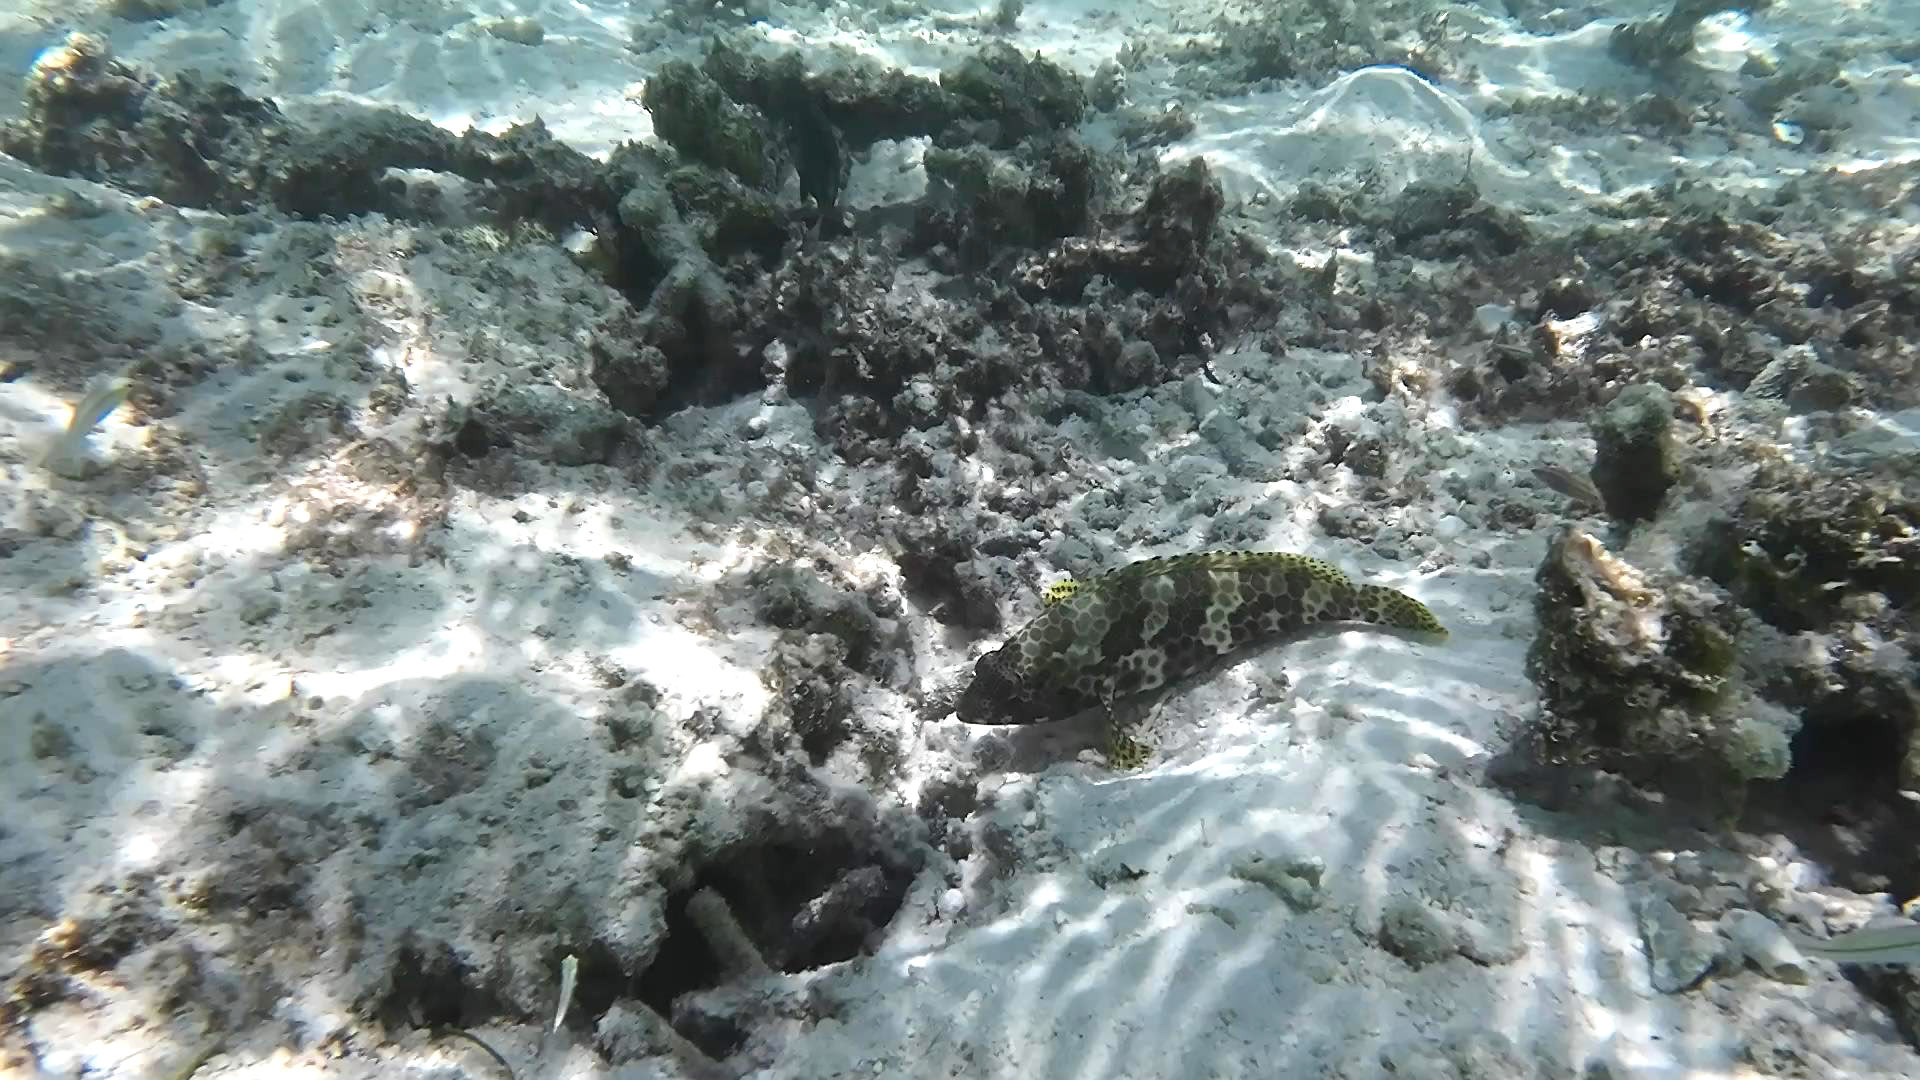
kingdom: Animalia
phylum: Chordata
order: Perciformes
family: Serranidae
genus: Epinephelus
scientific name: Epinephelus spilotoceps
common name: Foursaddle grouper
